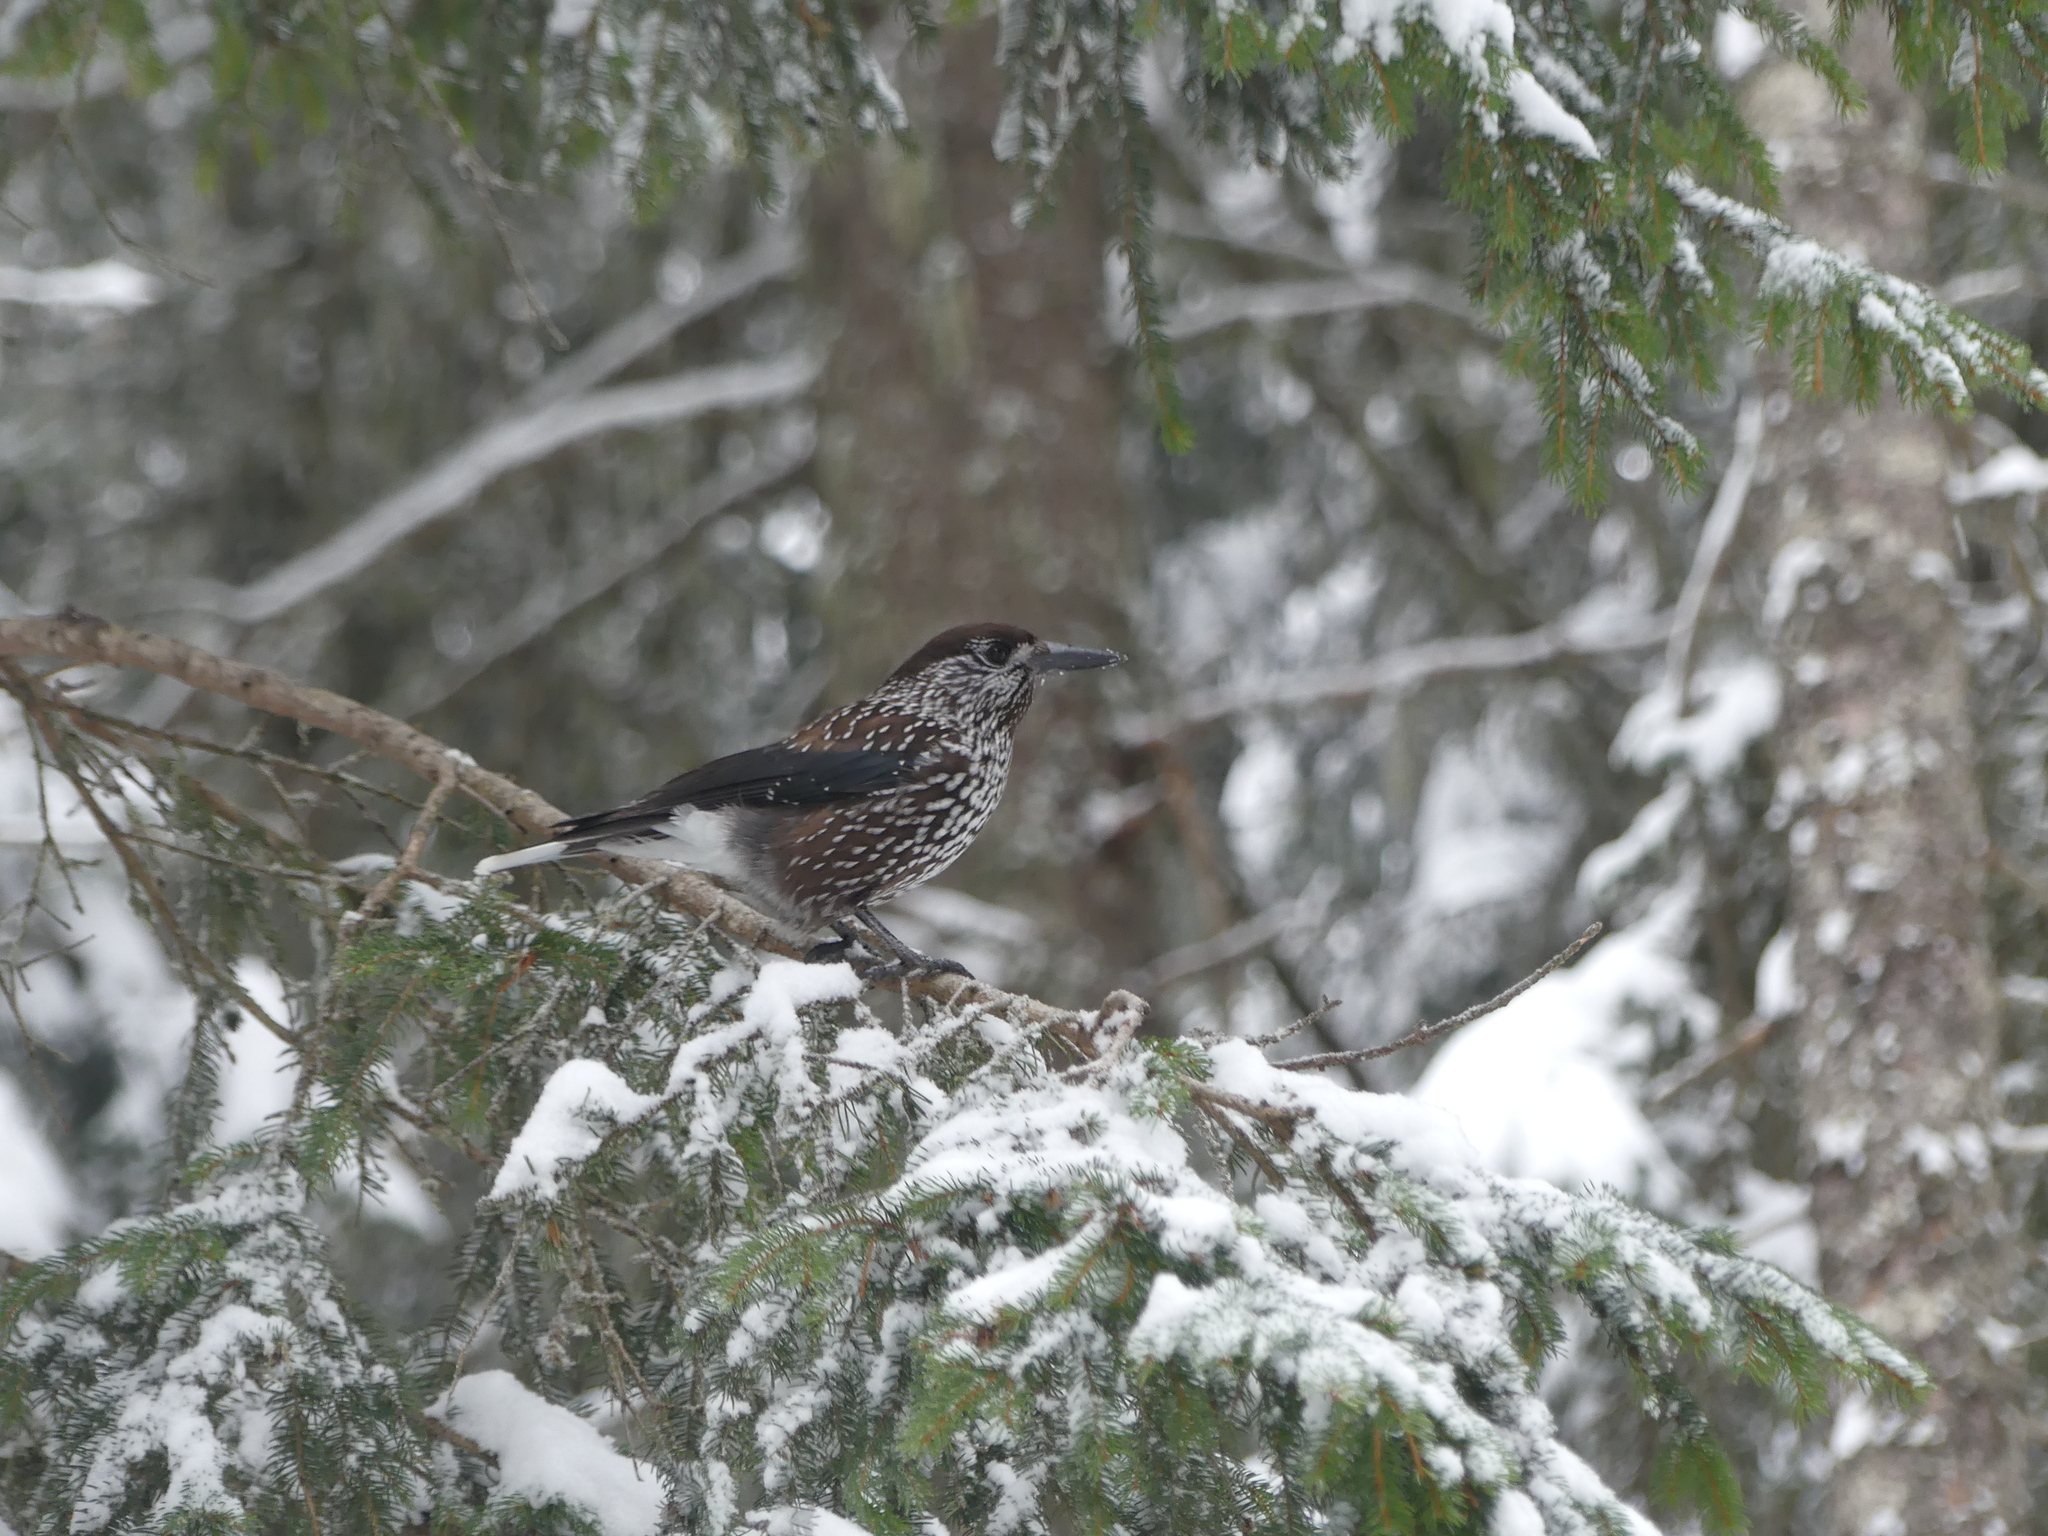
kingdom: Animalia
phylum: Chordata
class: Aves
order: Passeriformes
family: Corvidae
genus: Nucifraga
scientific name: Nucifraga caryocatactes
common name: Spotted nutcracker
